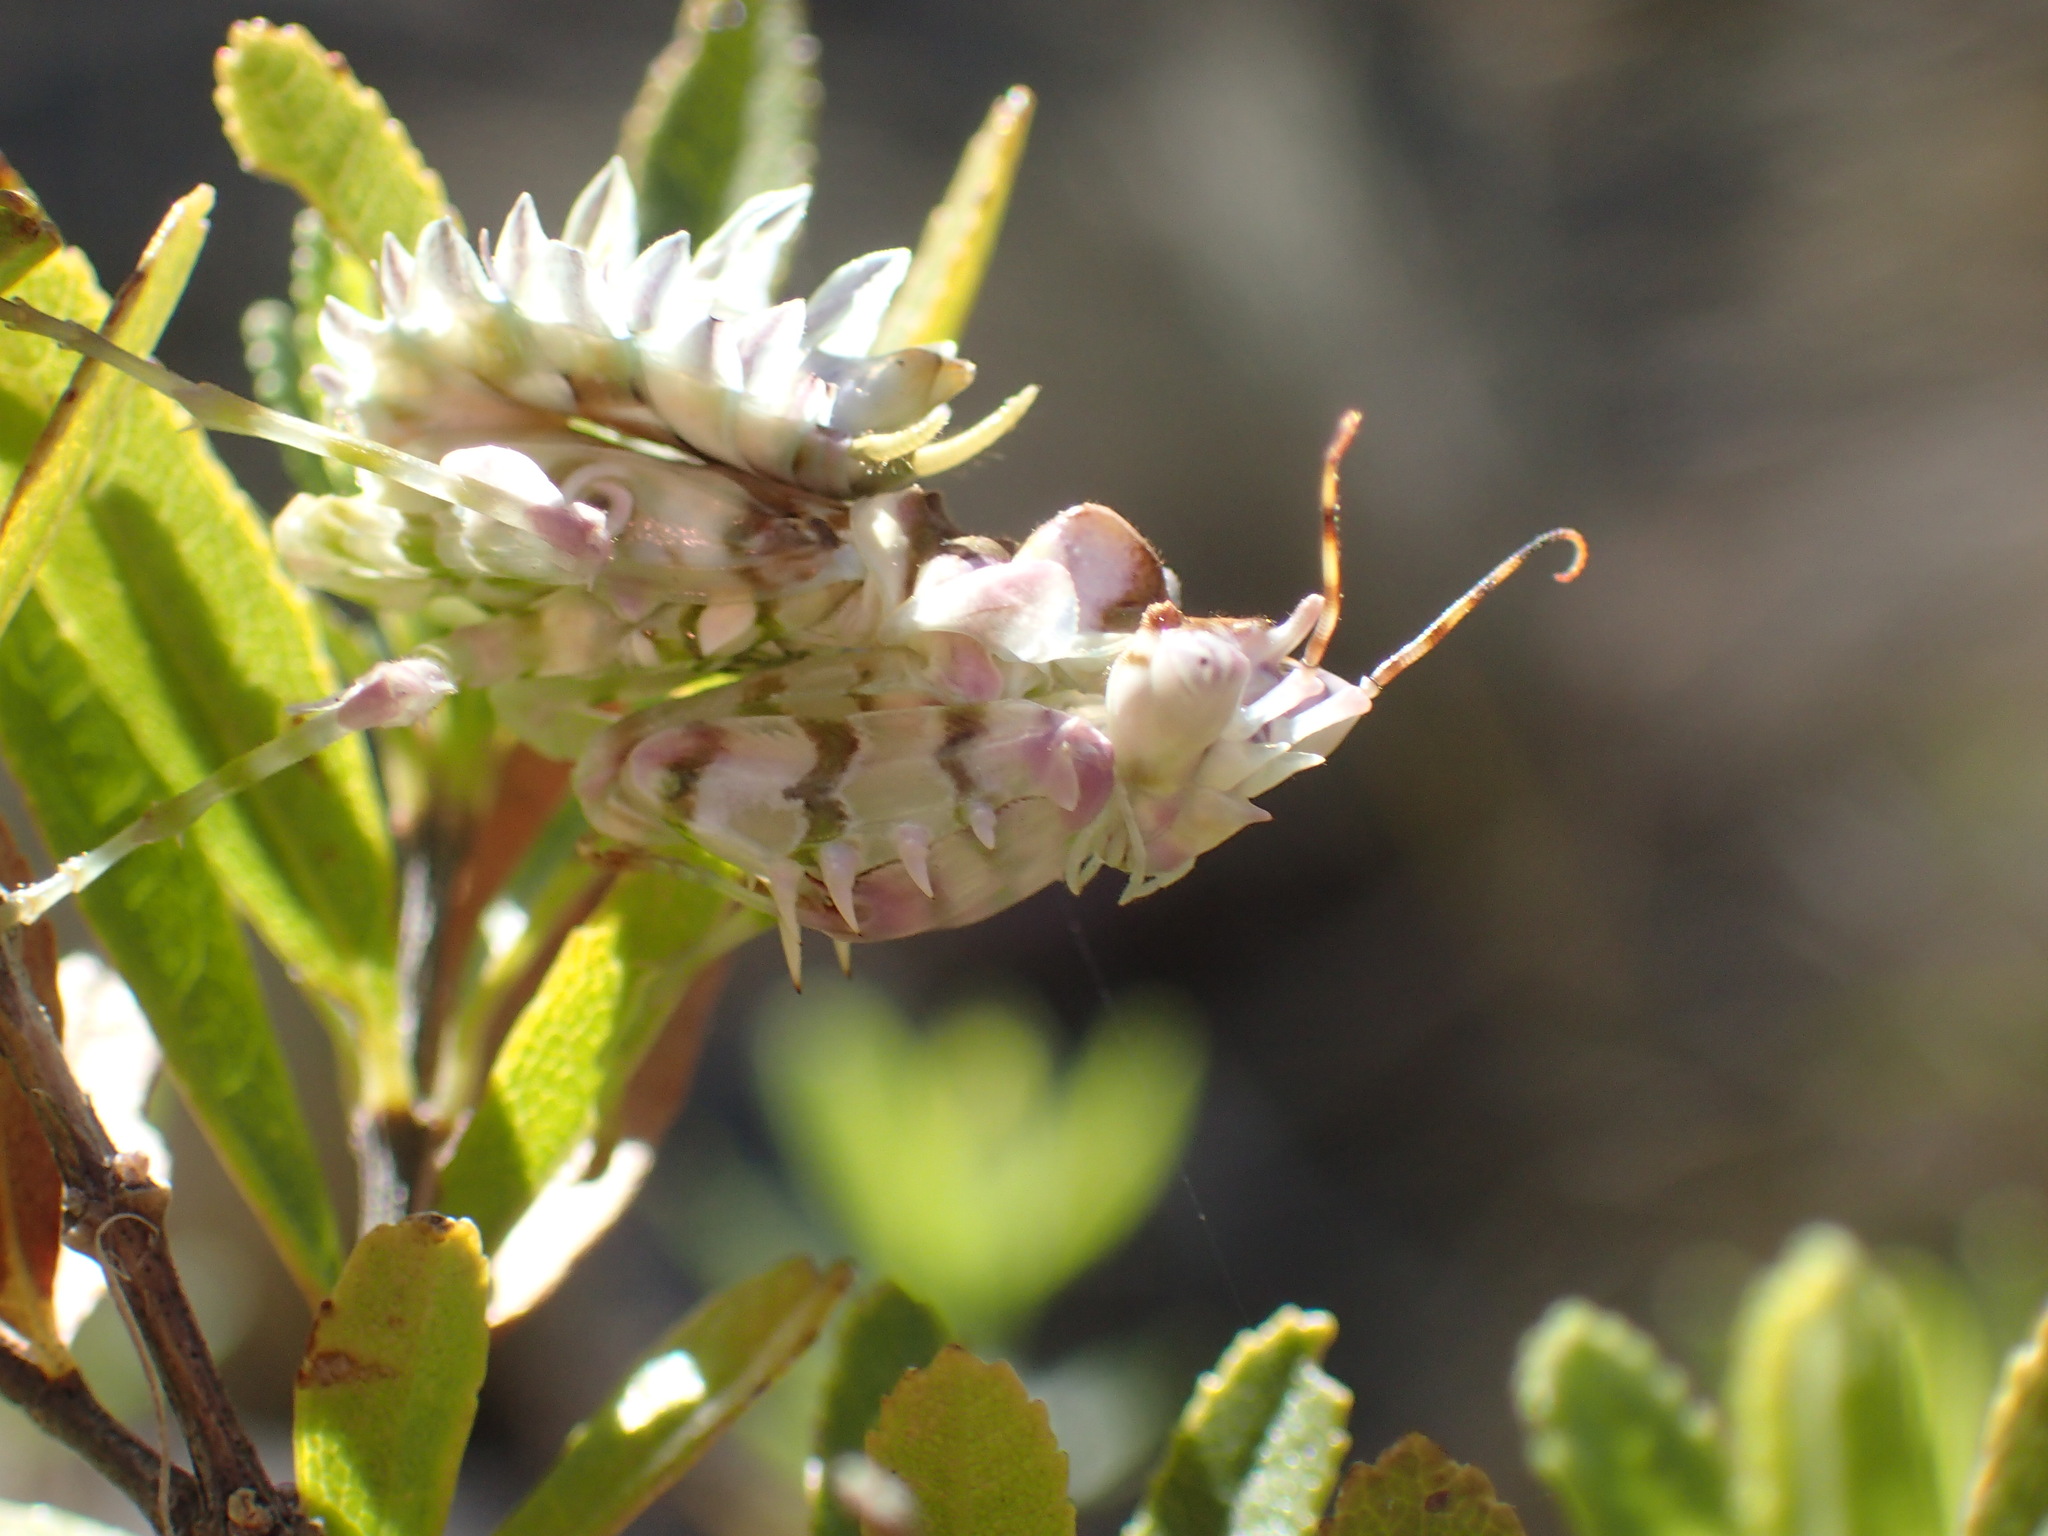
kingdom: Animalia
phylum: Arthropoda
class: Insecta
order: Mantodea
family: Hymenopodidae
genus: Pseudocreobotra
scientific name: Pseudocreobotra wahlbergi
